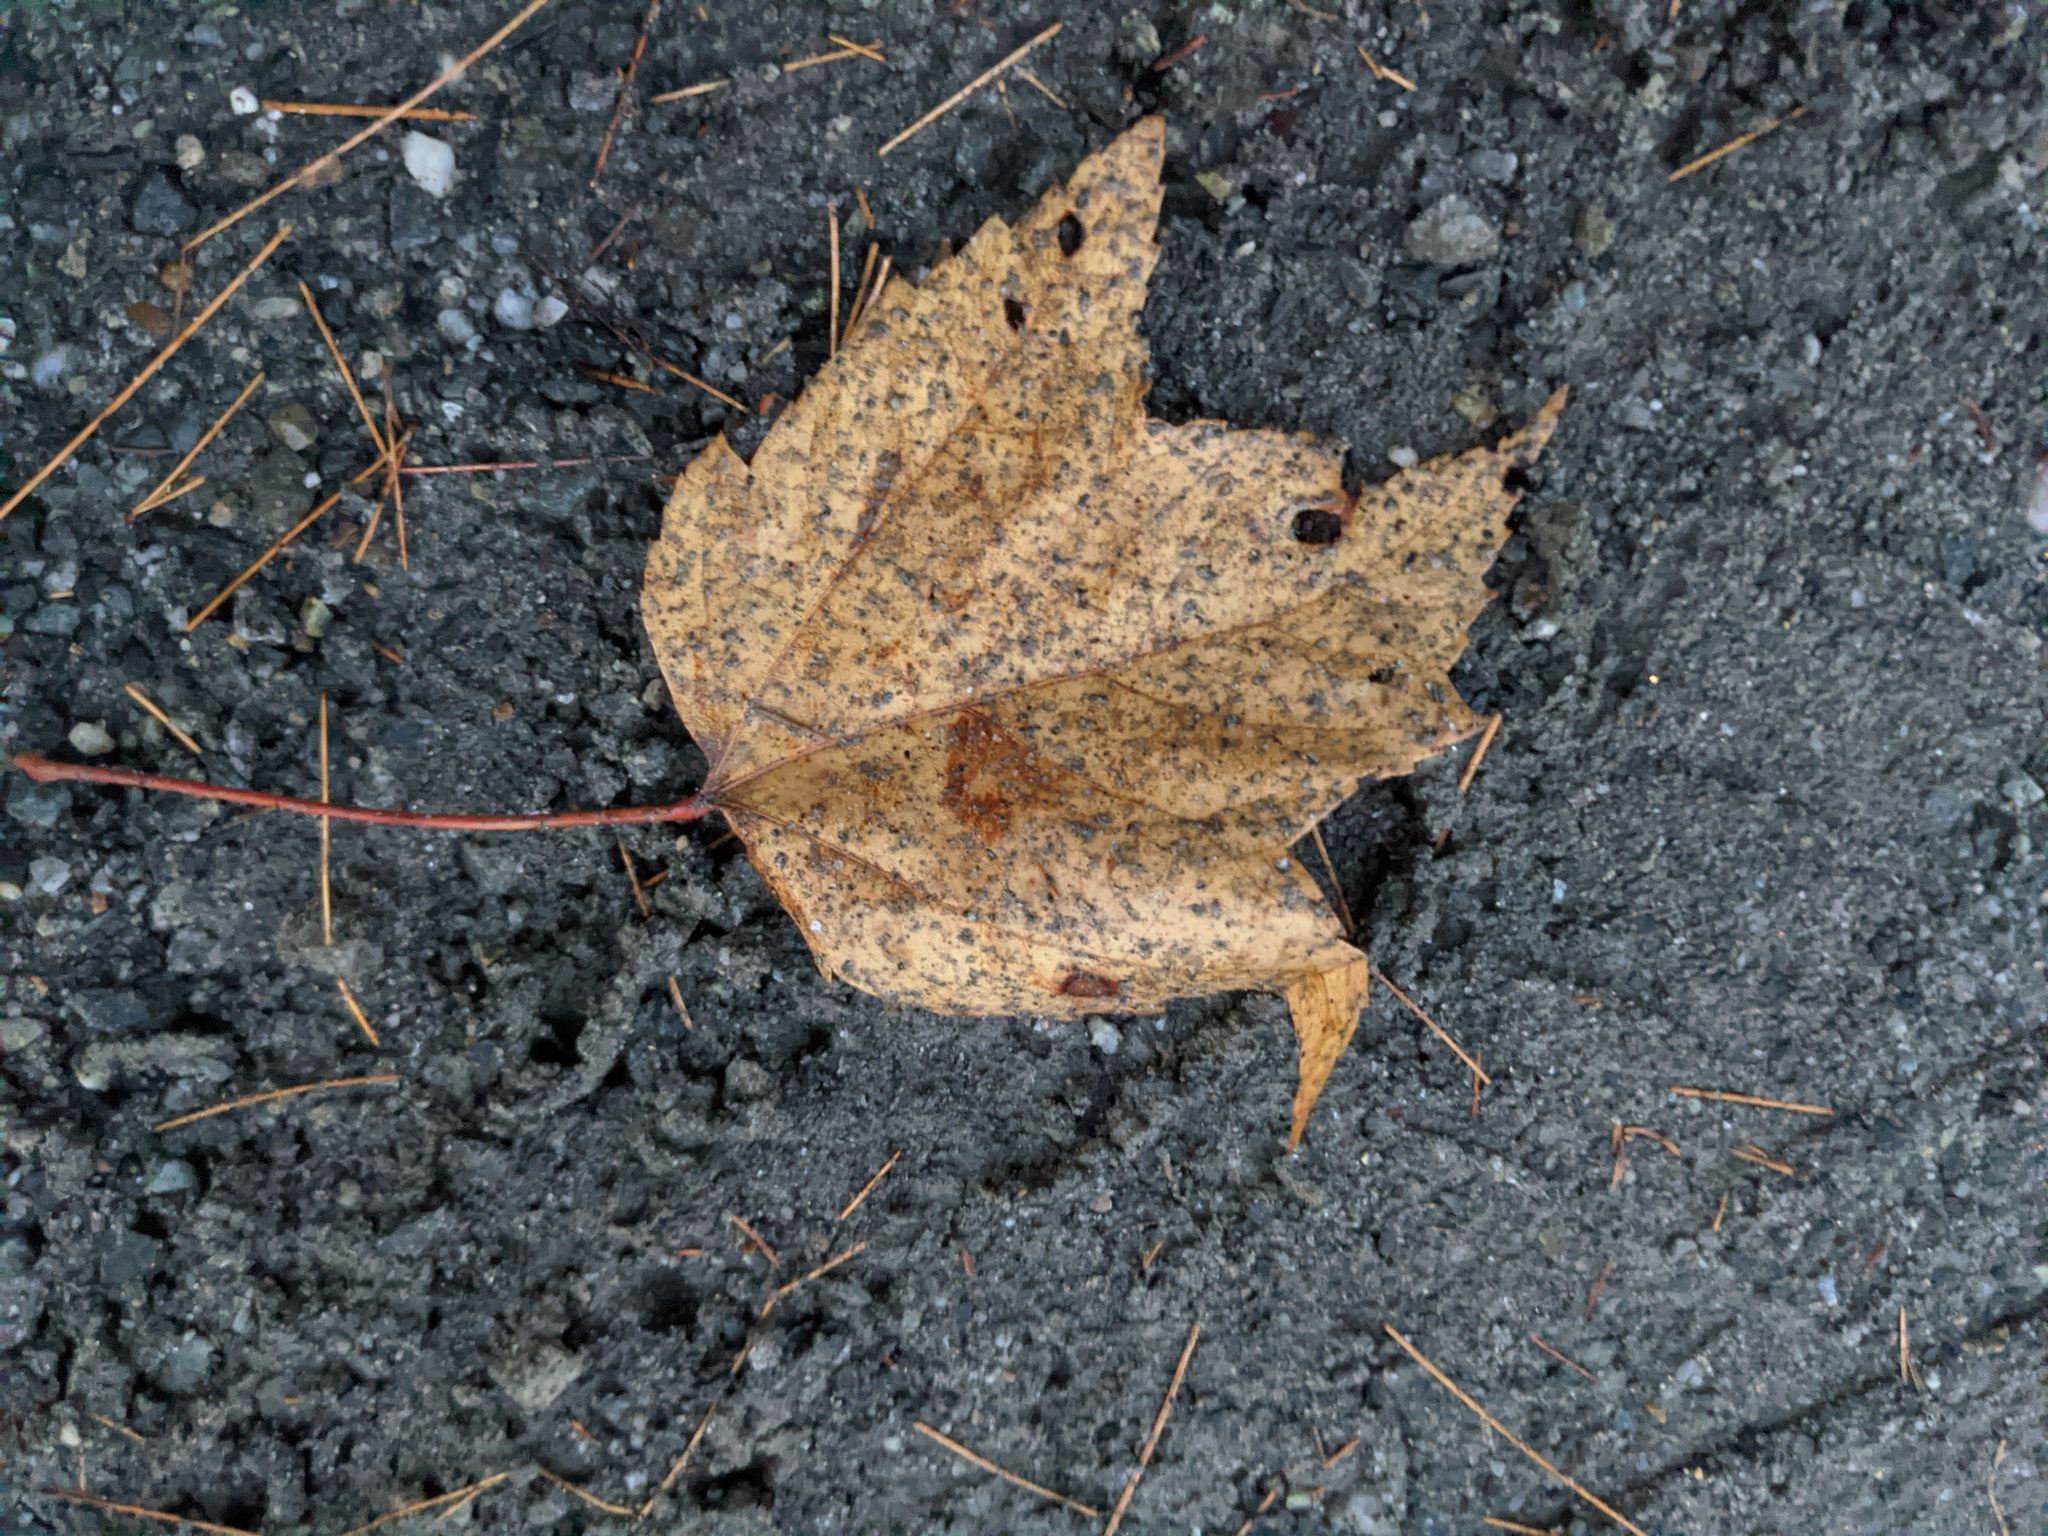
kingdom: Plantae
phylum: Tracheophyta
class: Magnoliopsida
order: Sapindales
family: Sapindaceae
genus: Acer
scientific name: Acer rubrum
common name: Red maple
